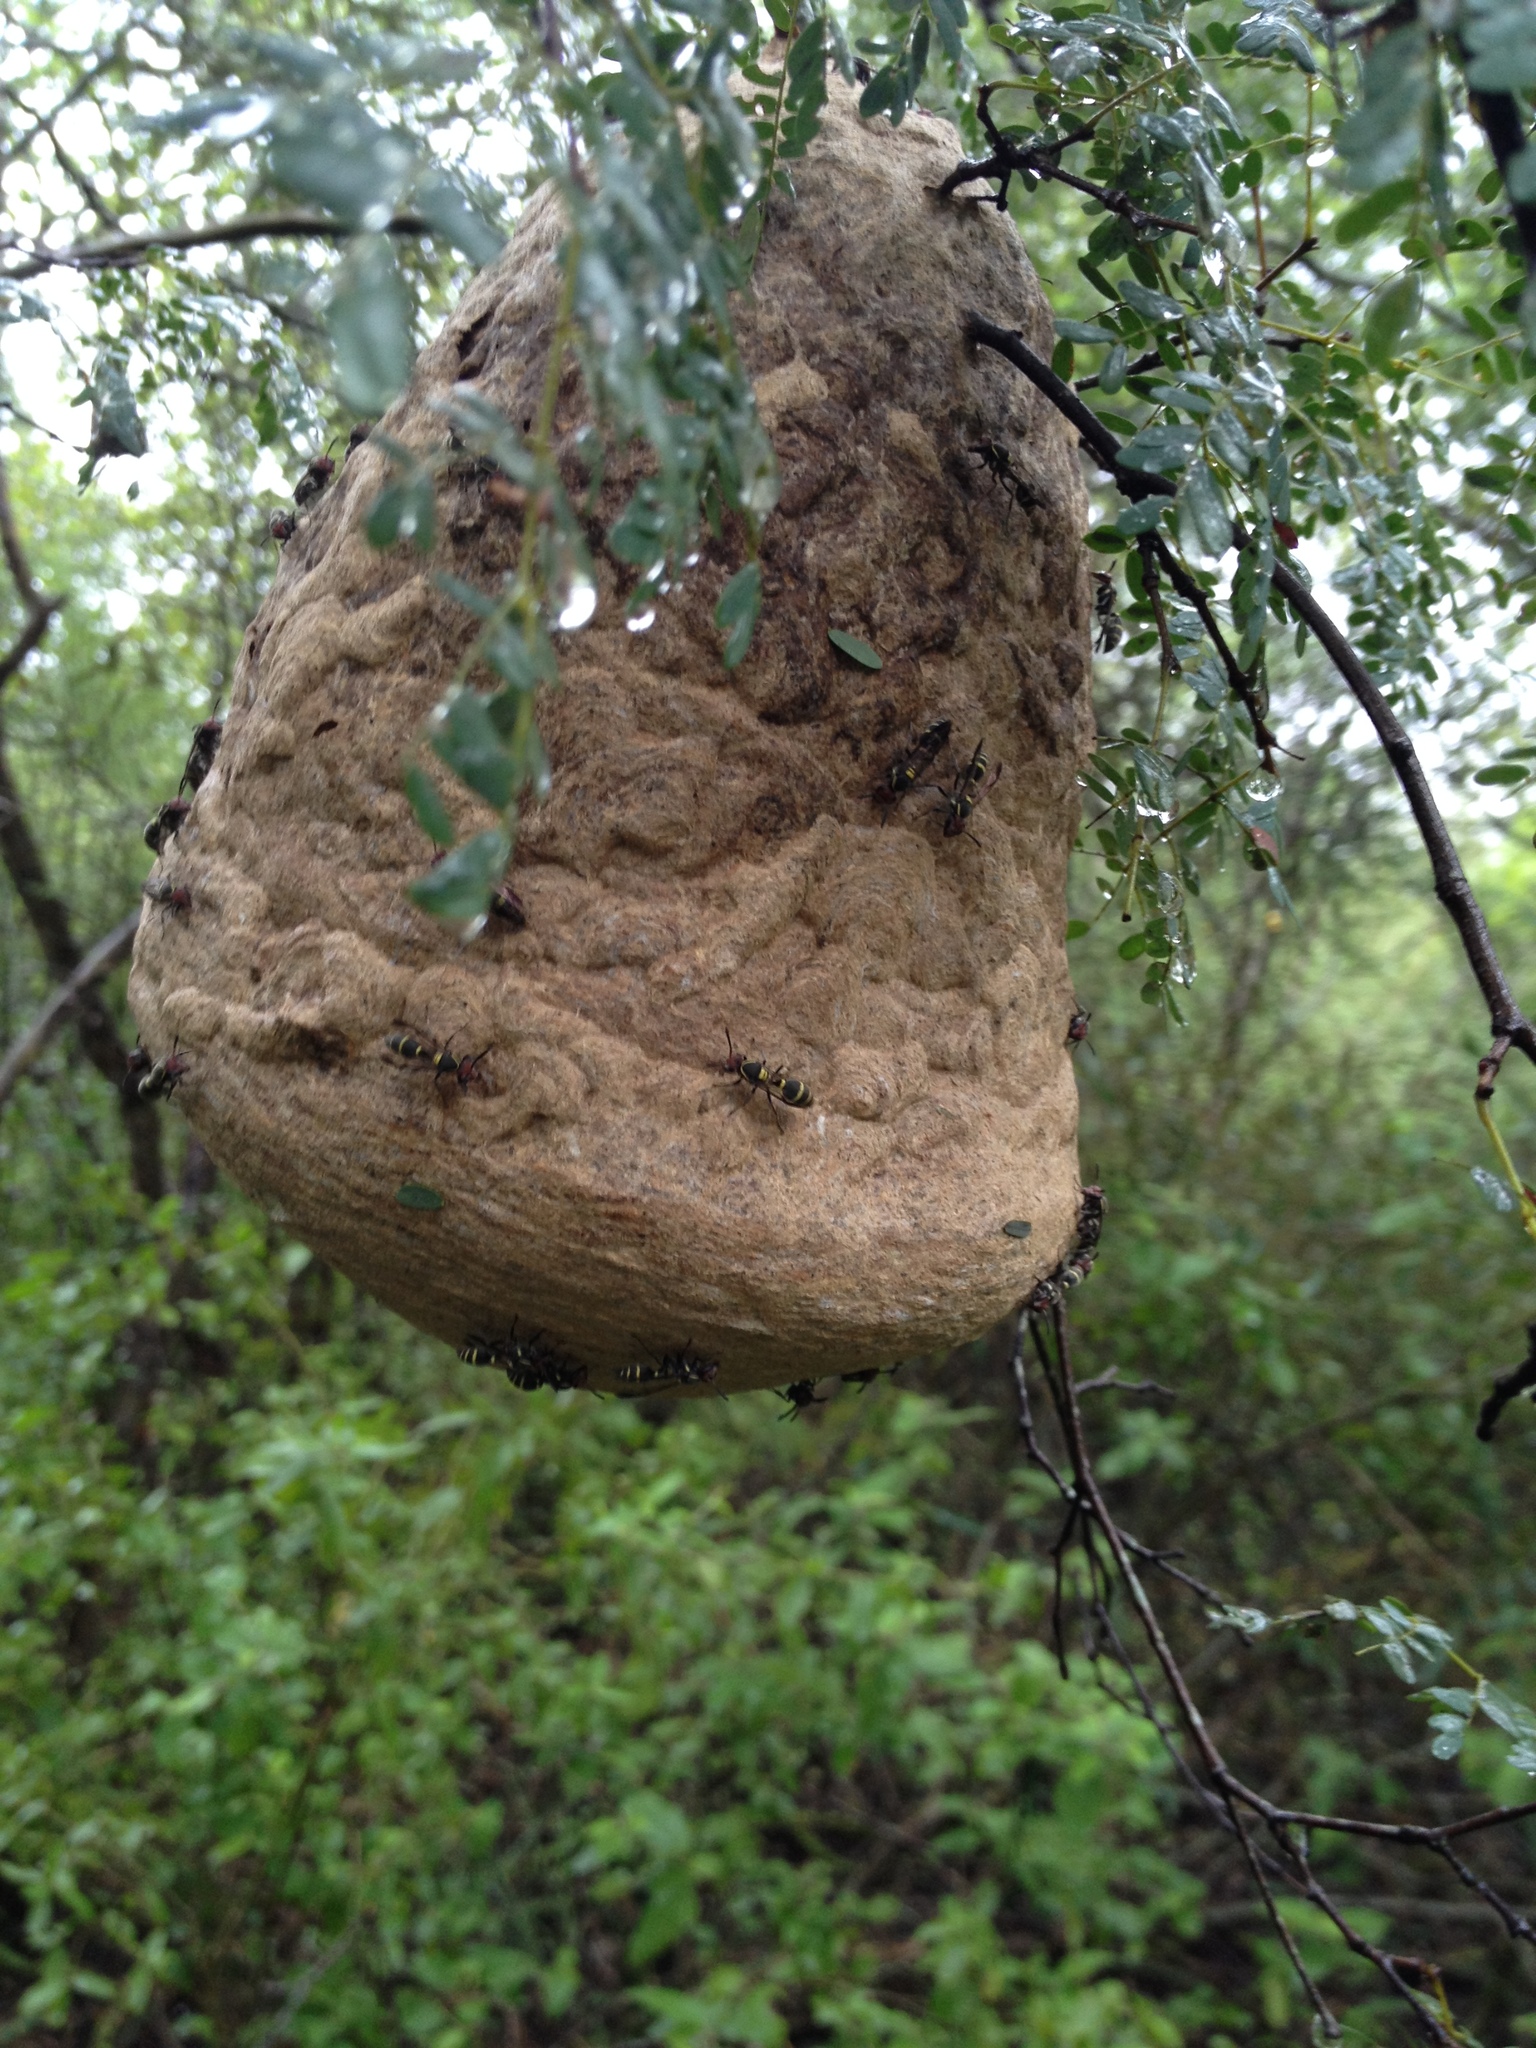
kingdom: Animalia
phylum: Arthropoda
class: Insecta
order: Hymenoptera
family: Eumenidae
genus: Polybia
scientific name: Polybia ruficeps
